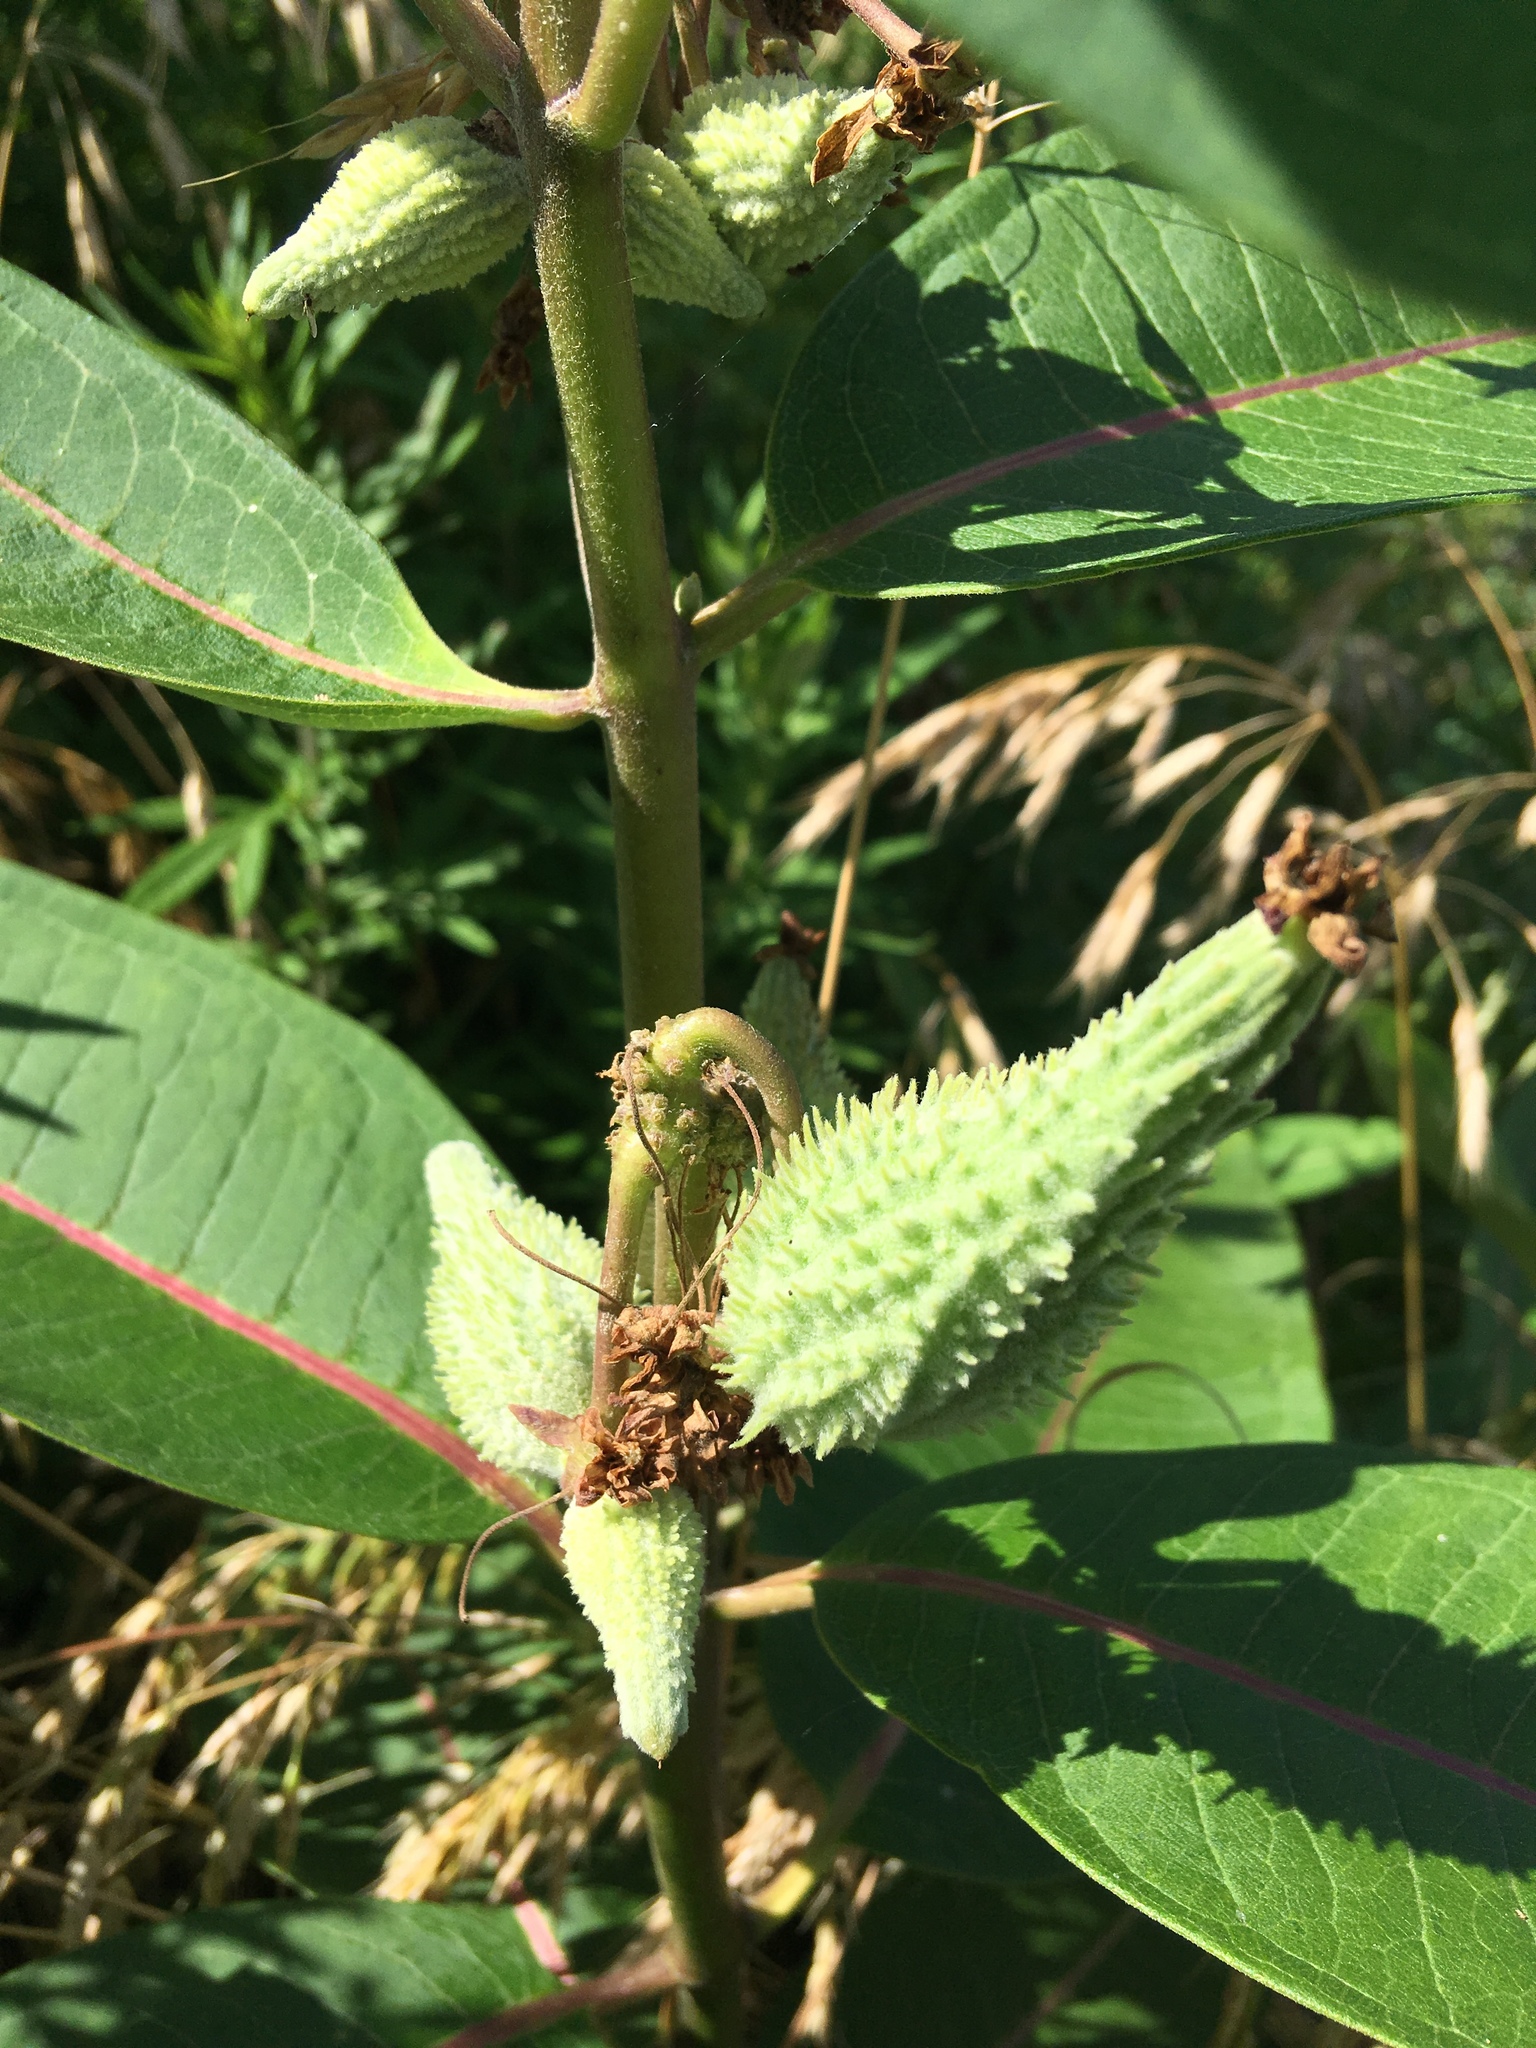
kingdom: Plantae
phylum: Tracheophyta
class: Magnoliopsida
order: Gentianales
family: Apocynaceae
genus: Asclepias
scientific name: Asclepias syriaca
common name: Common milkweed
